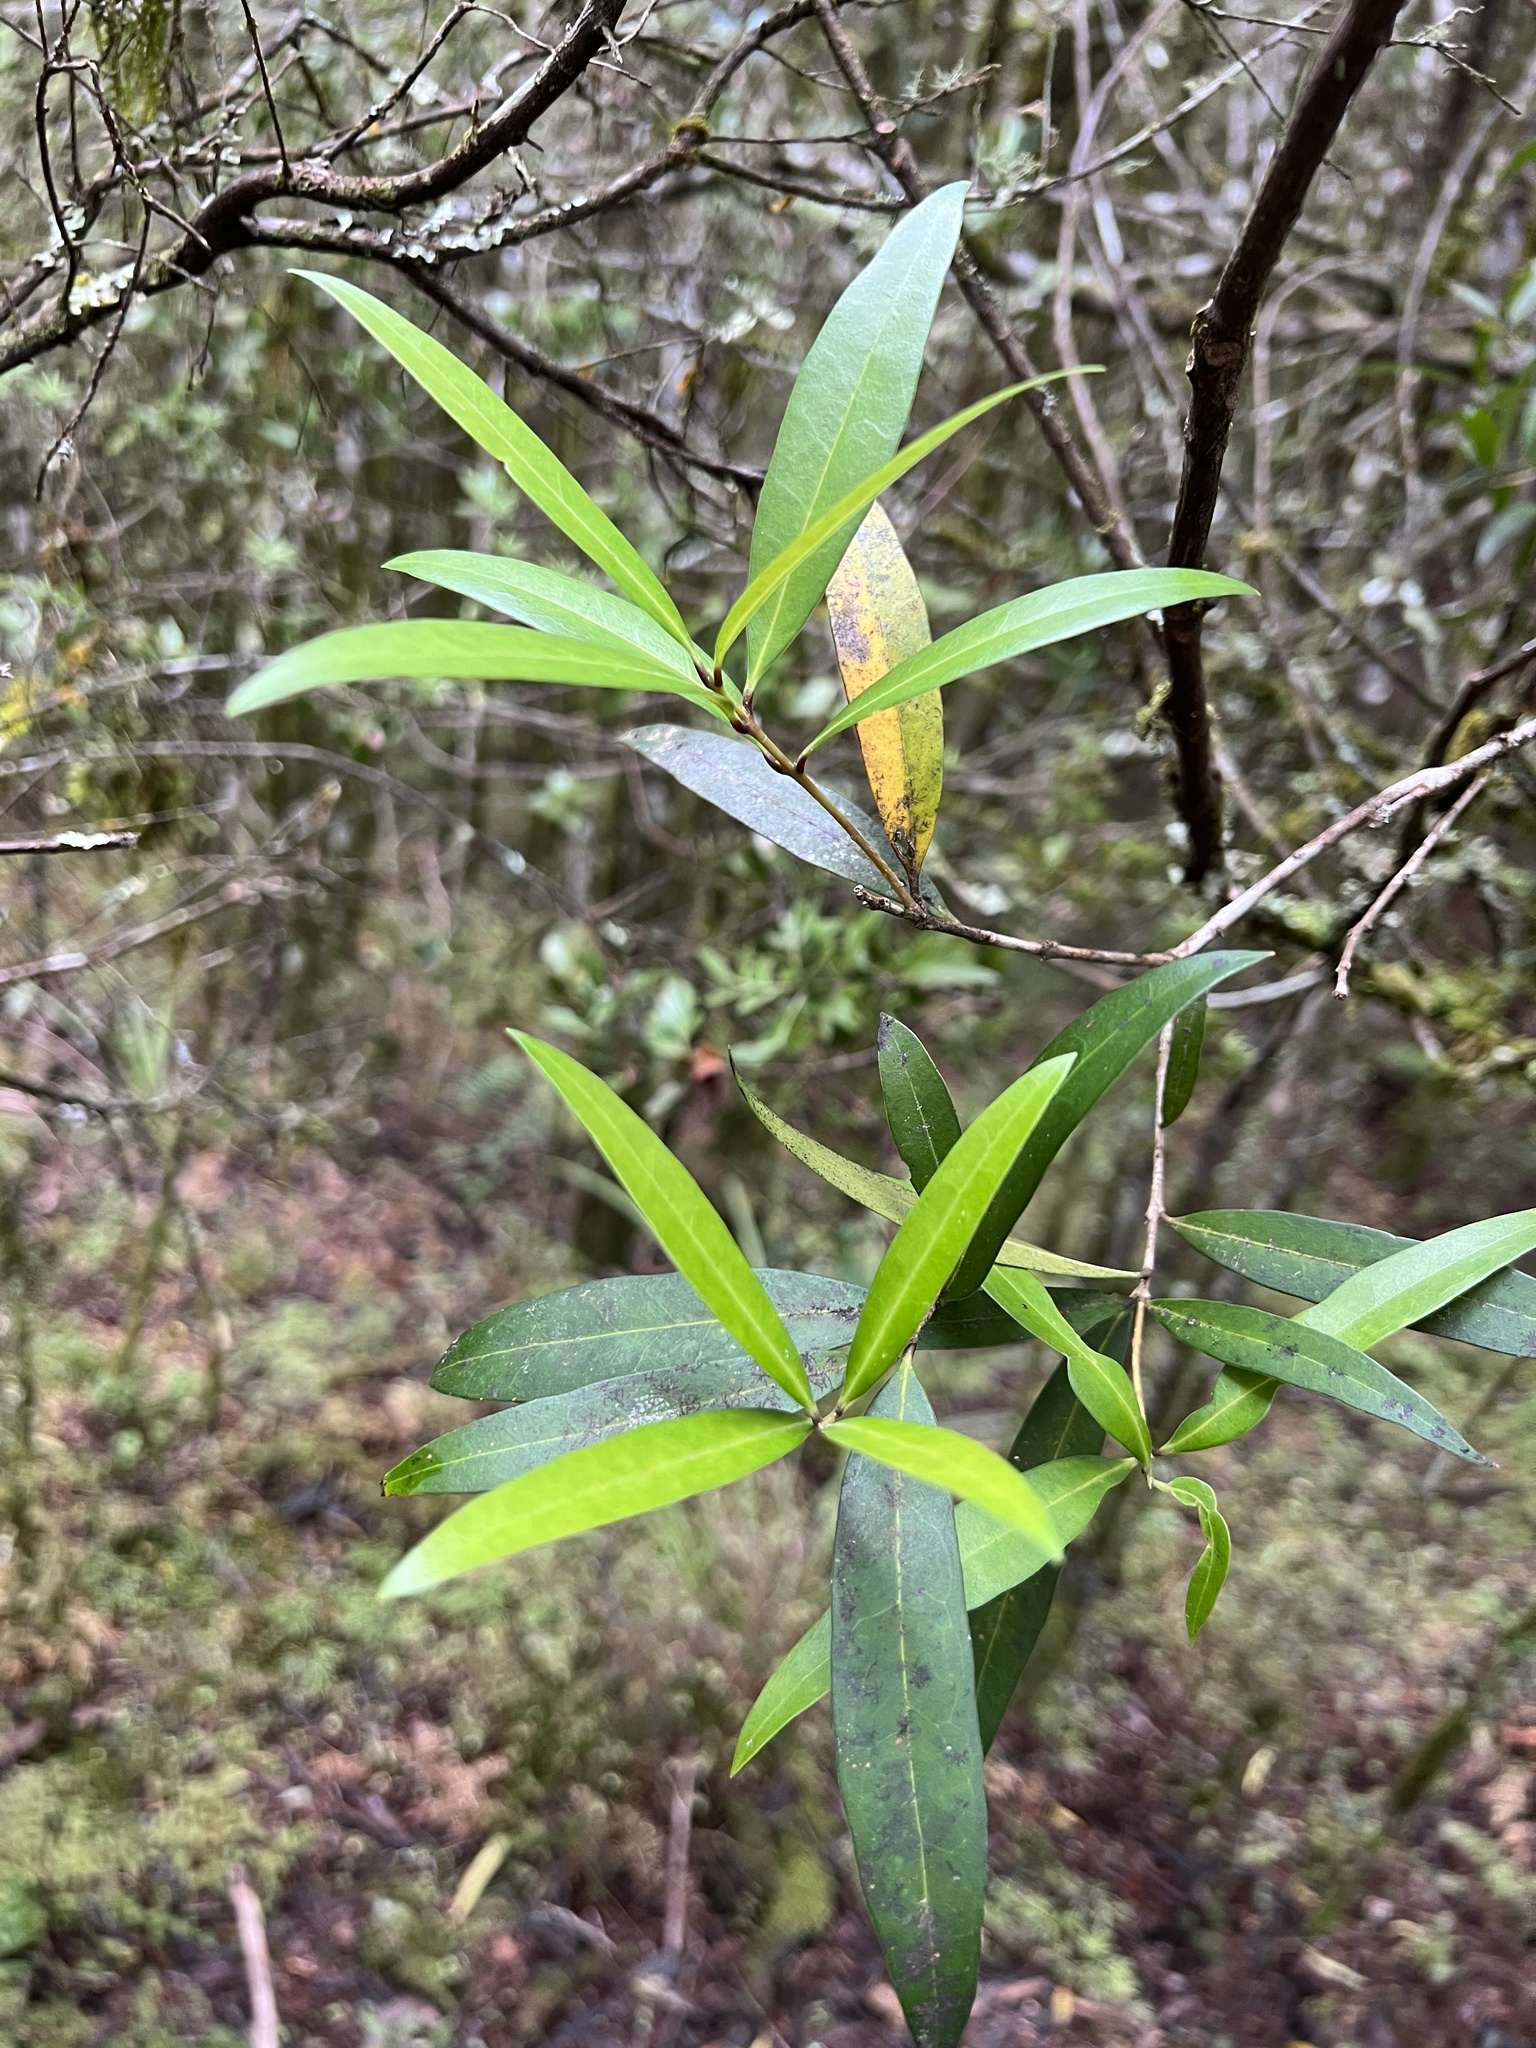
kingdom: Plantae
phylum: Tracheophyta
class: Magnoliopsida
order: Lamiales
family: Oleaceae
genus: Nestegis
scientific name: Nestegis lanceolata
